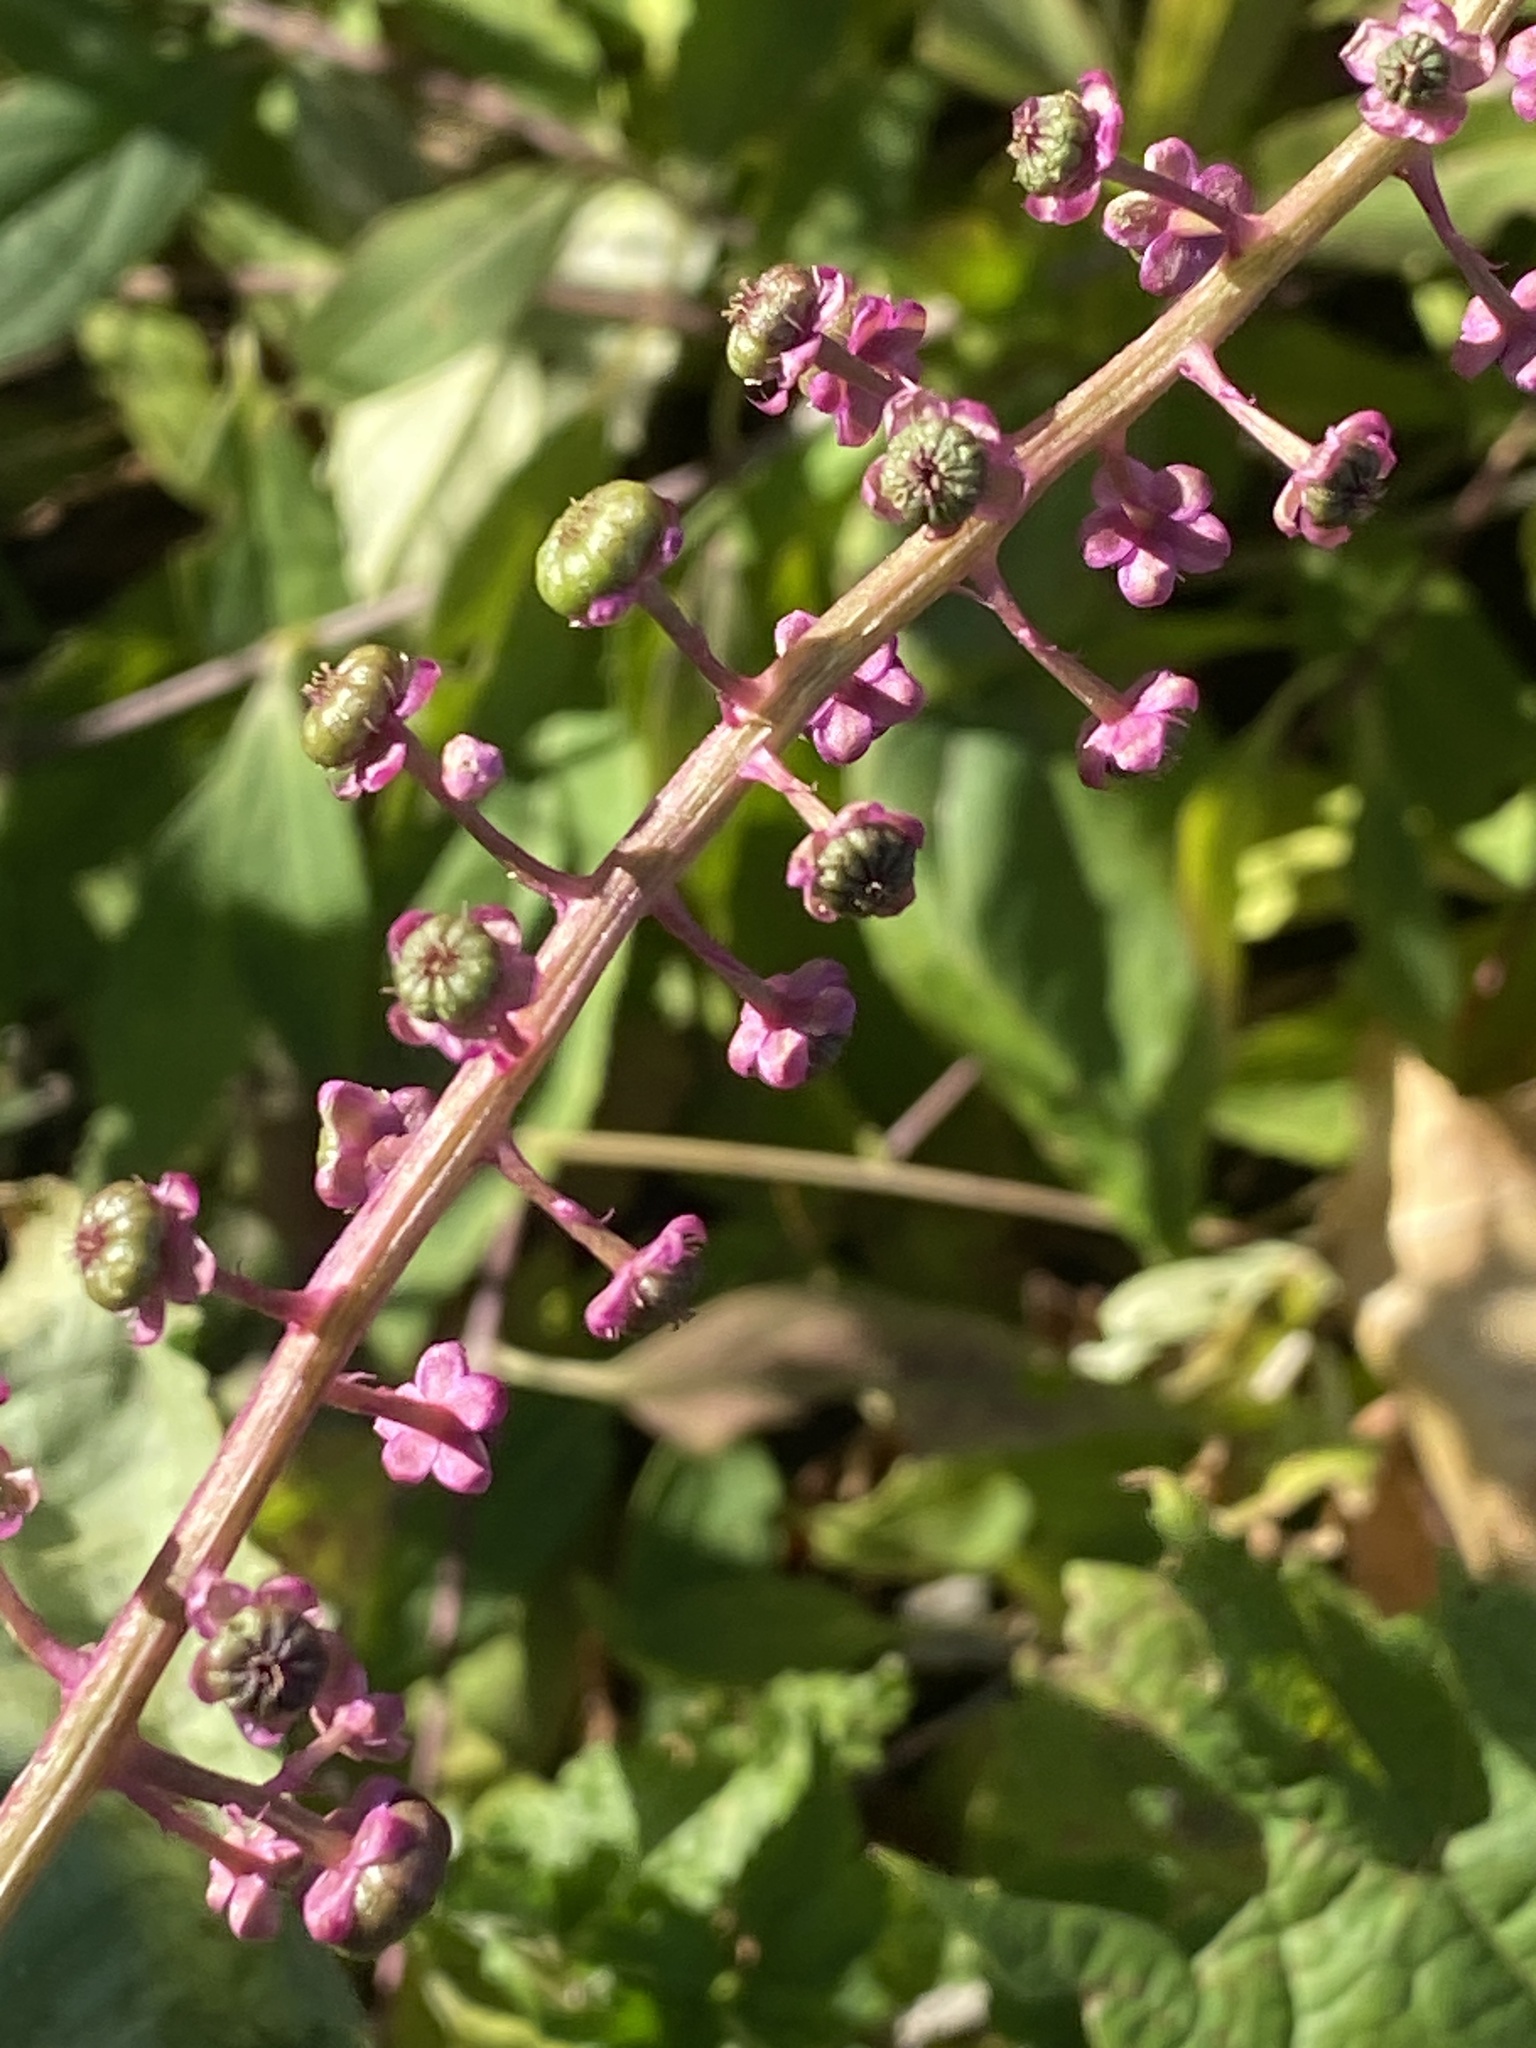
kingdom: Plantae
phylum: Tracheophyta
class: Magnoliopsida
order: Caryophyllales
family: Phytolaccaceae
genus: Phytolacca
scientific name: Phytolacca americana
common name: American pokeweed
